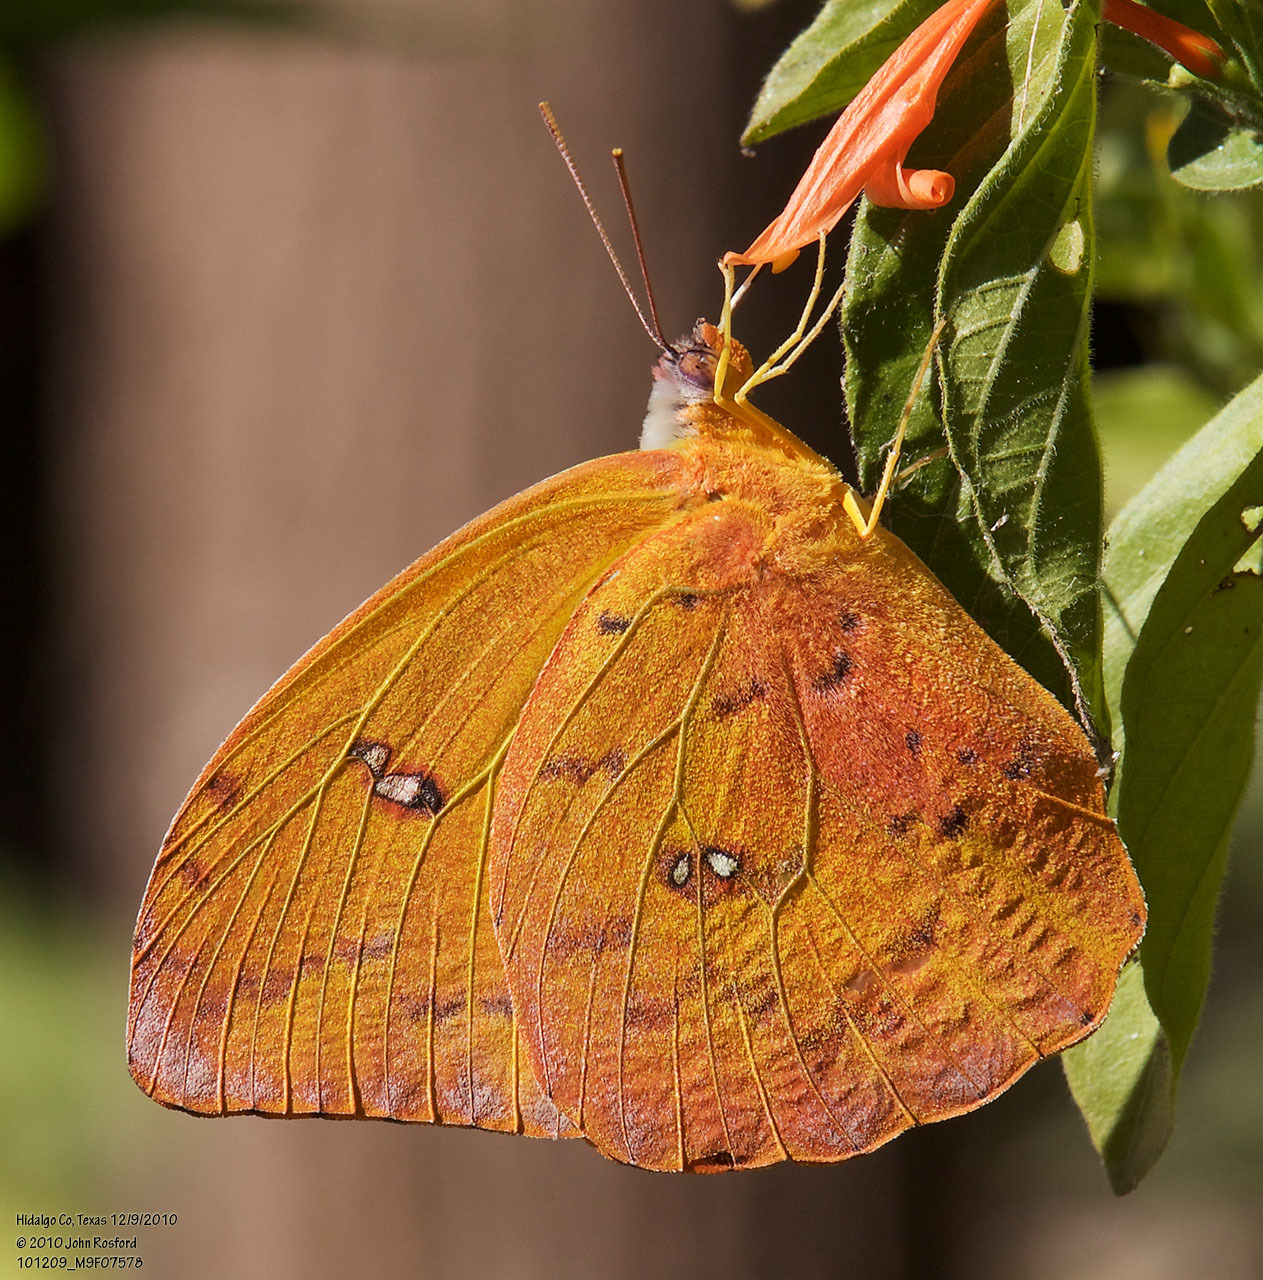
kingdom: Animalia
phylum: Arthropoda
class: Insecta
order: Lepidoptera
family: Pieridae
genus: Phoebis
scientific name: Phoebis philea
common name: Orange-barred giant sulphur
